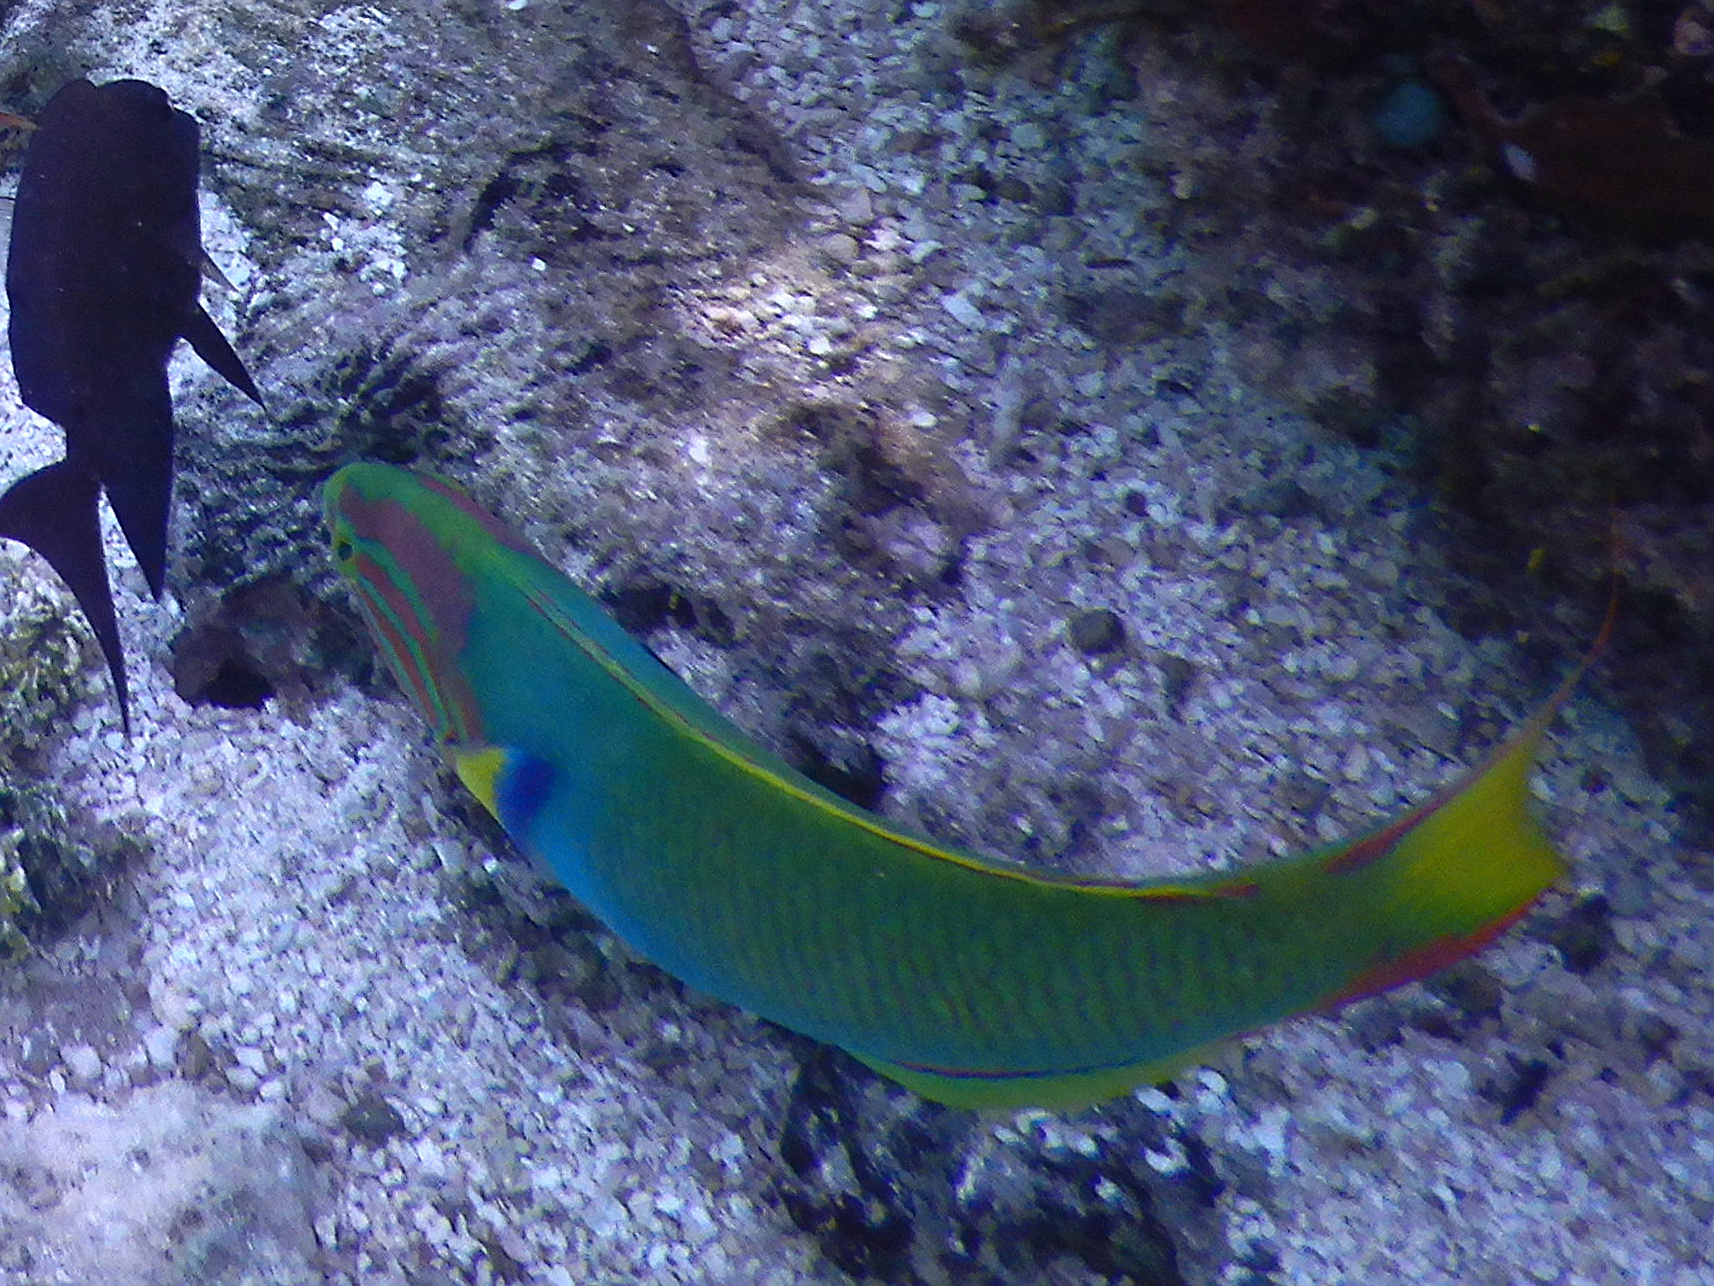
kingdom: Animalia
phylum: Chordata
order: Perciformes
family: Labridae
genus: Thalassoma
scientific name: Thalassoma lutescens
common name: Green moon wrasse
